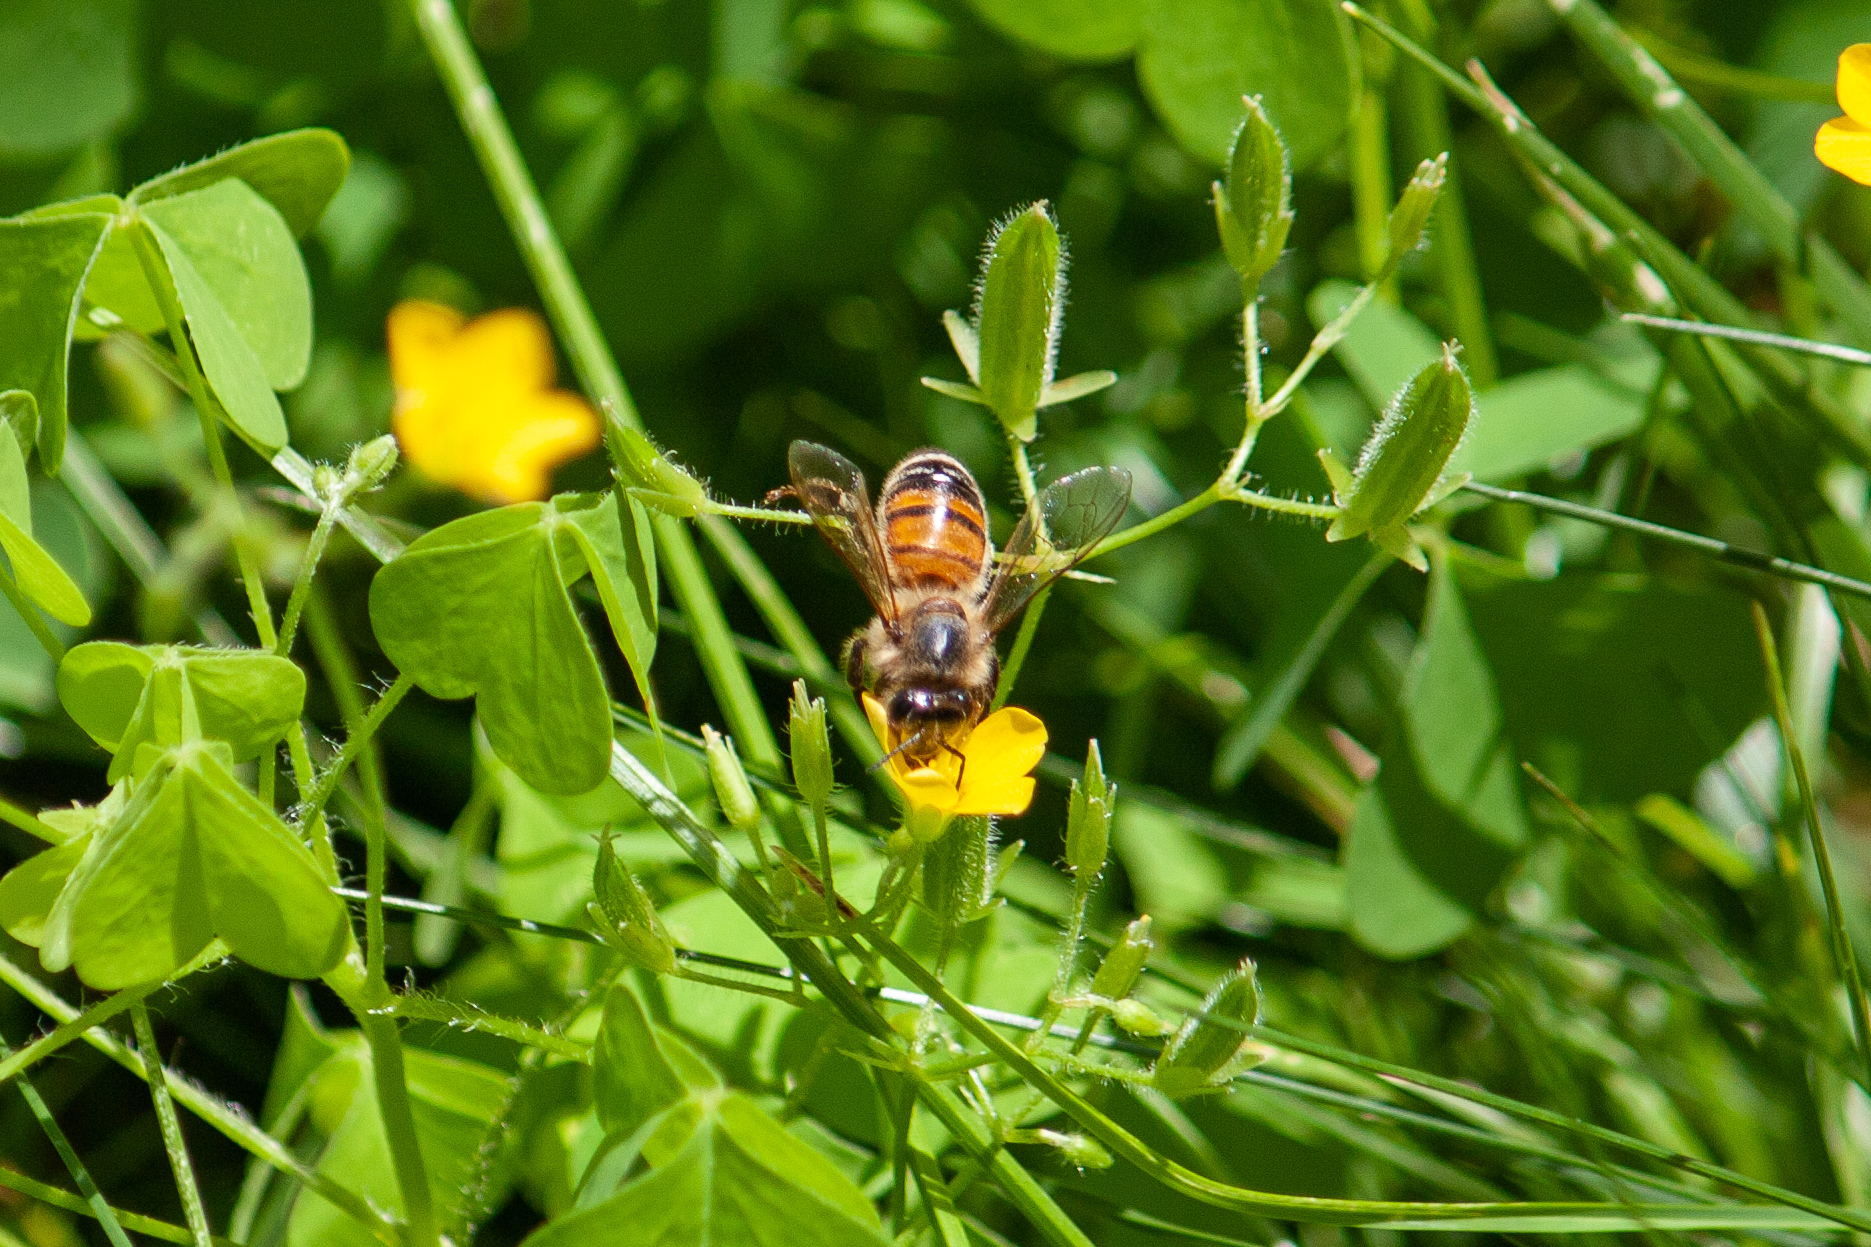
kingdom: Animalia
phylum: Arthropoda
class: Insecta
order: Hymenoptera
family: Apidae
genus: Apis
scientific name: Apis mellifera
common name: Honey bee
